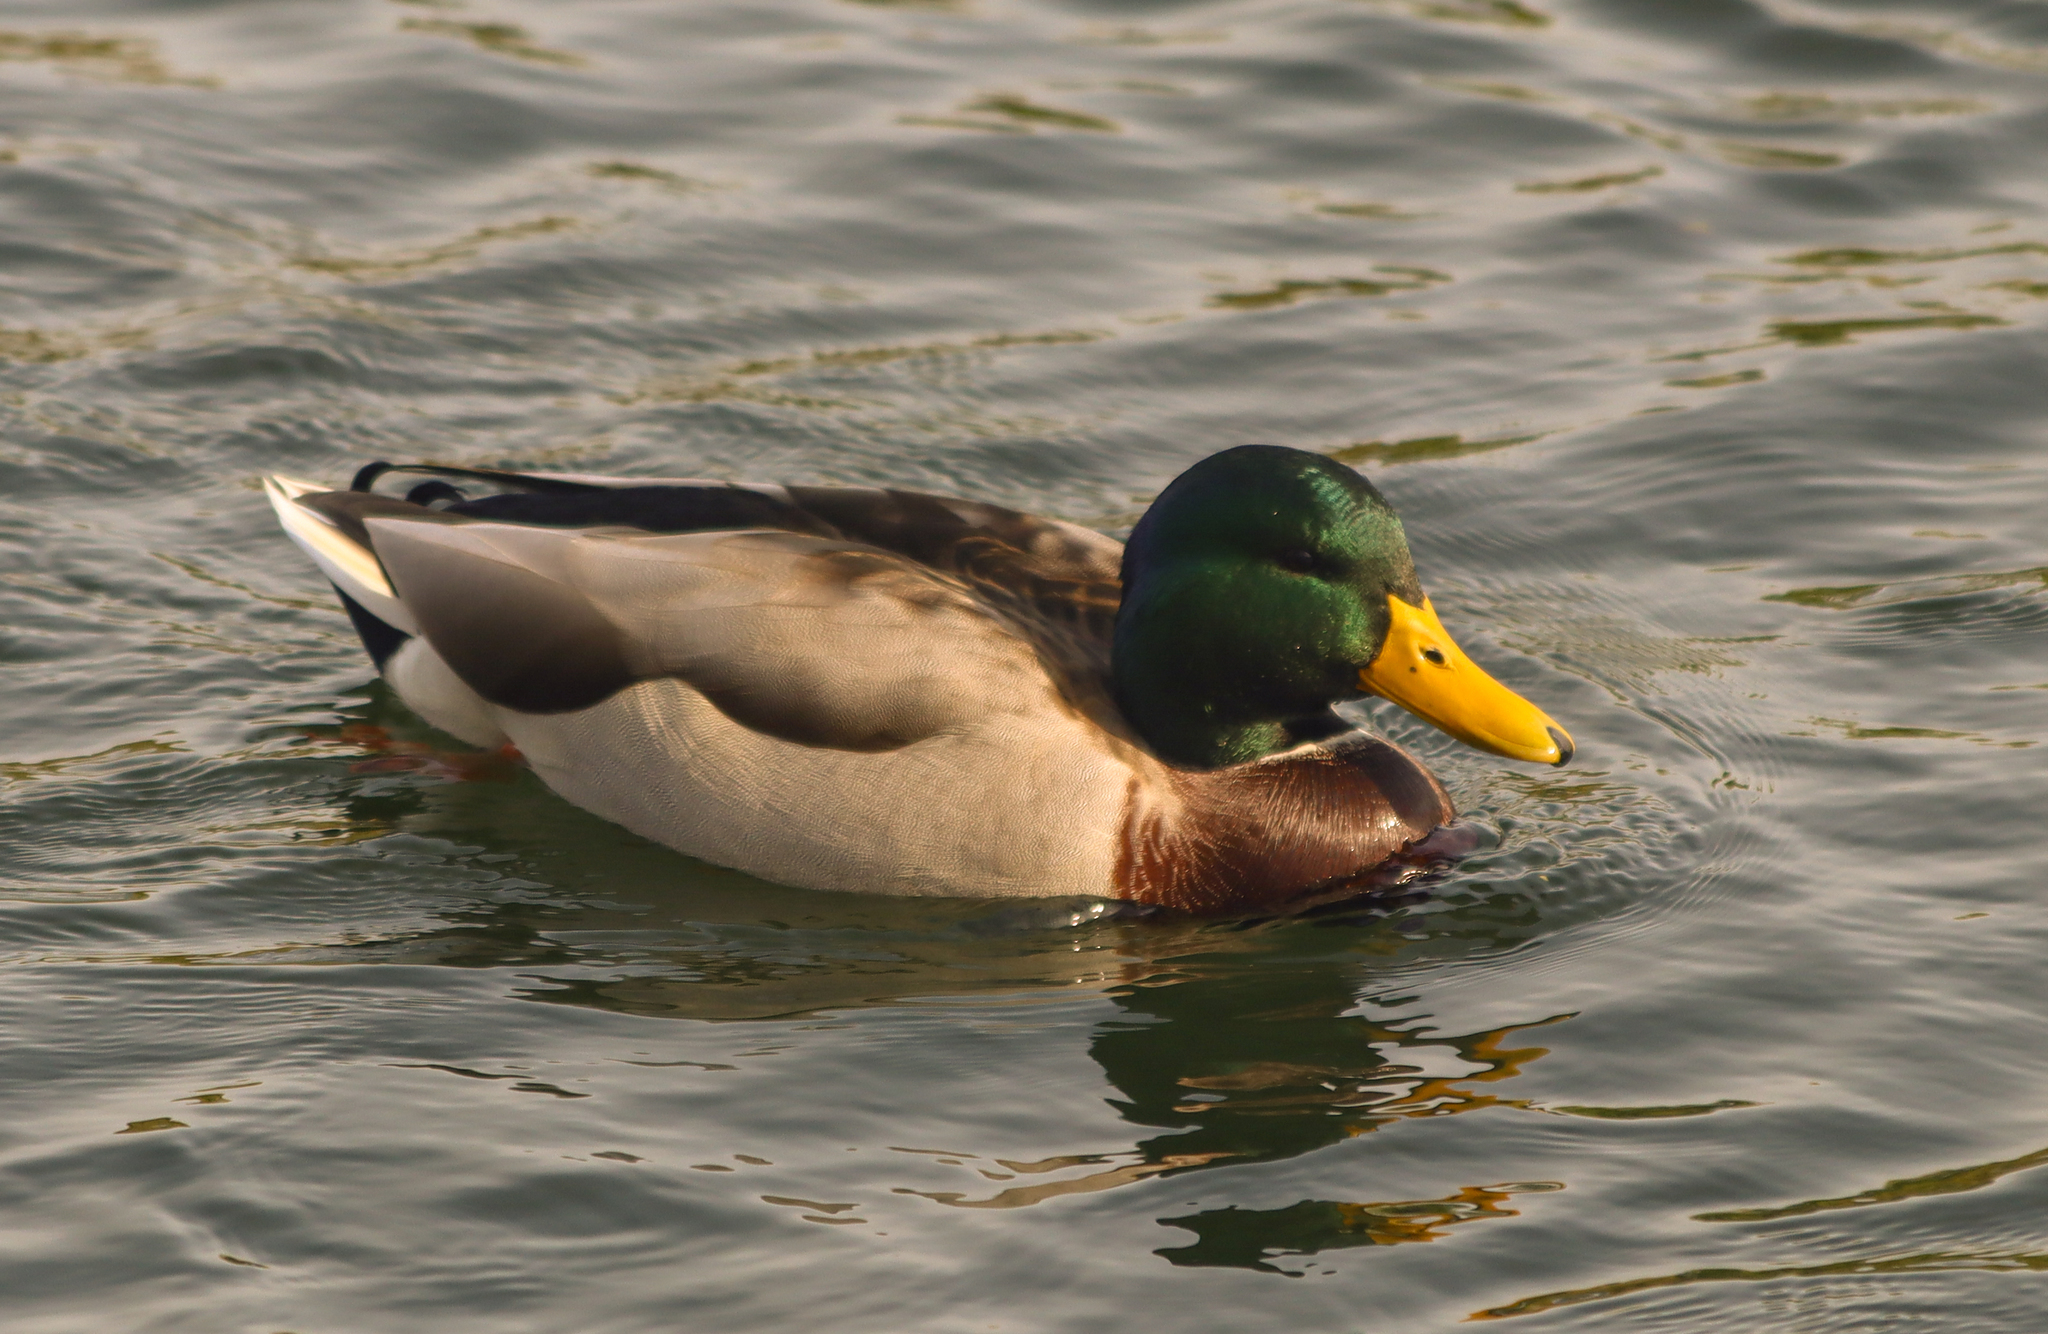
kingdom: Animalia
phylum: Chordata
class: Aves
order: Anseriformes
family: Anatidae
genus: Anas
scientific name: Anas platyrhynchos
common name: Mallard
